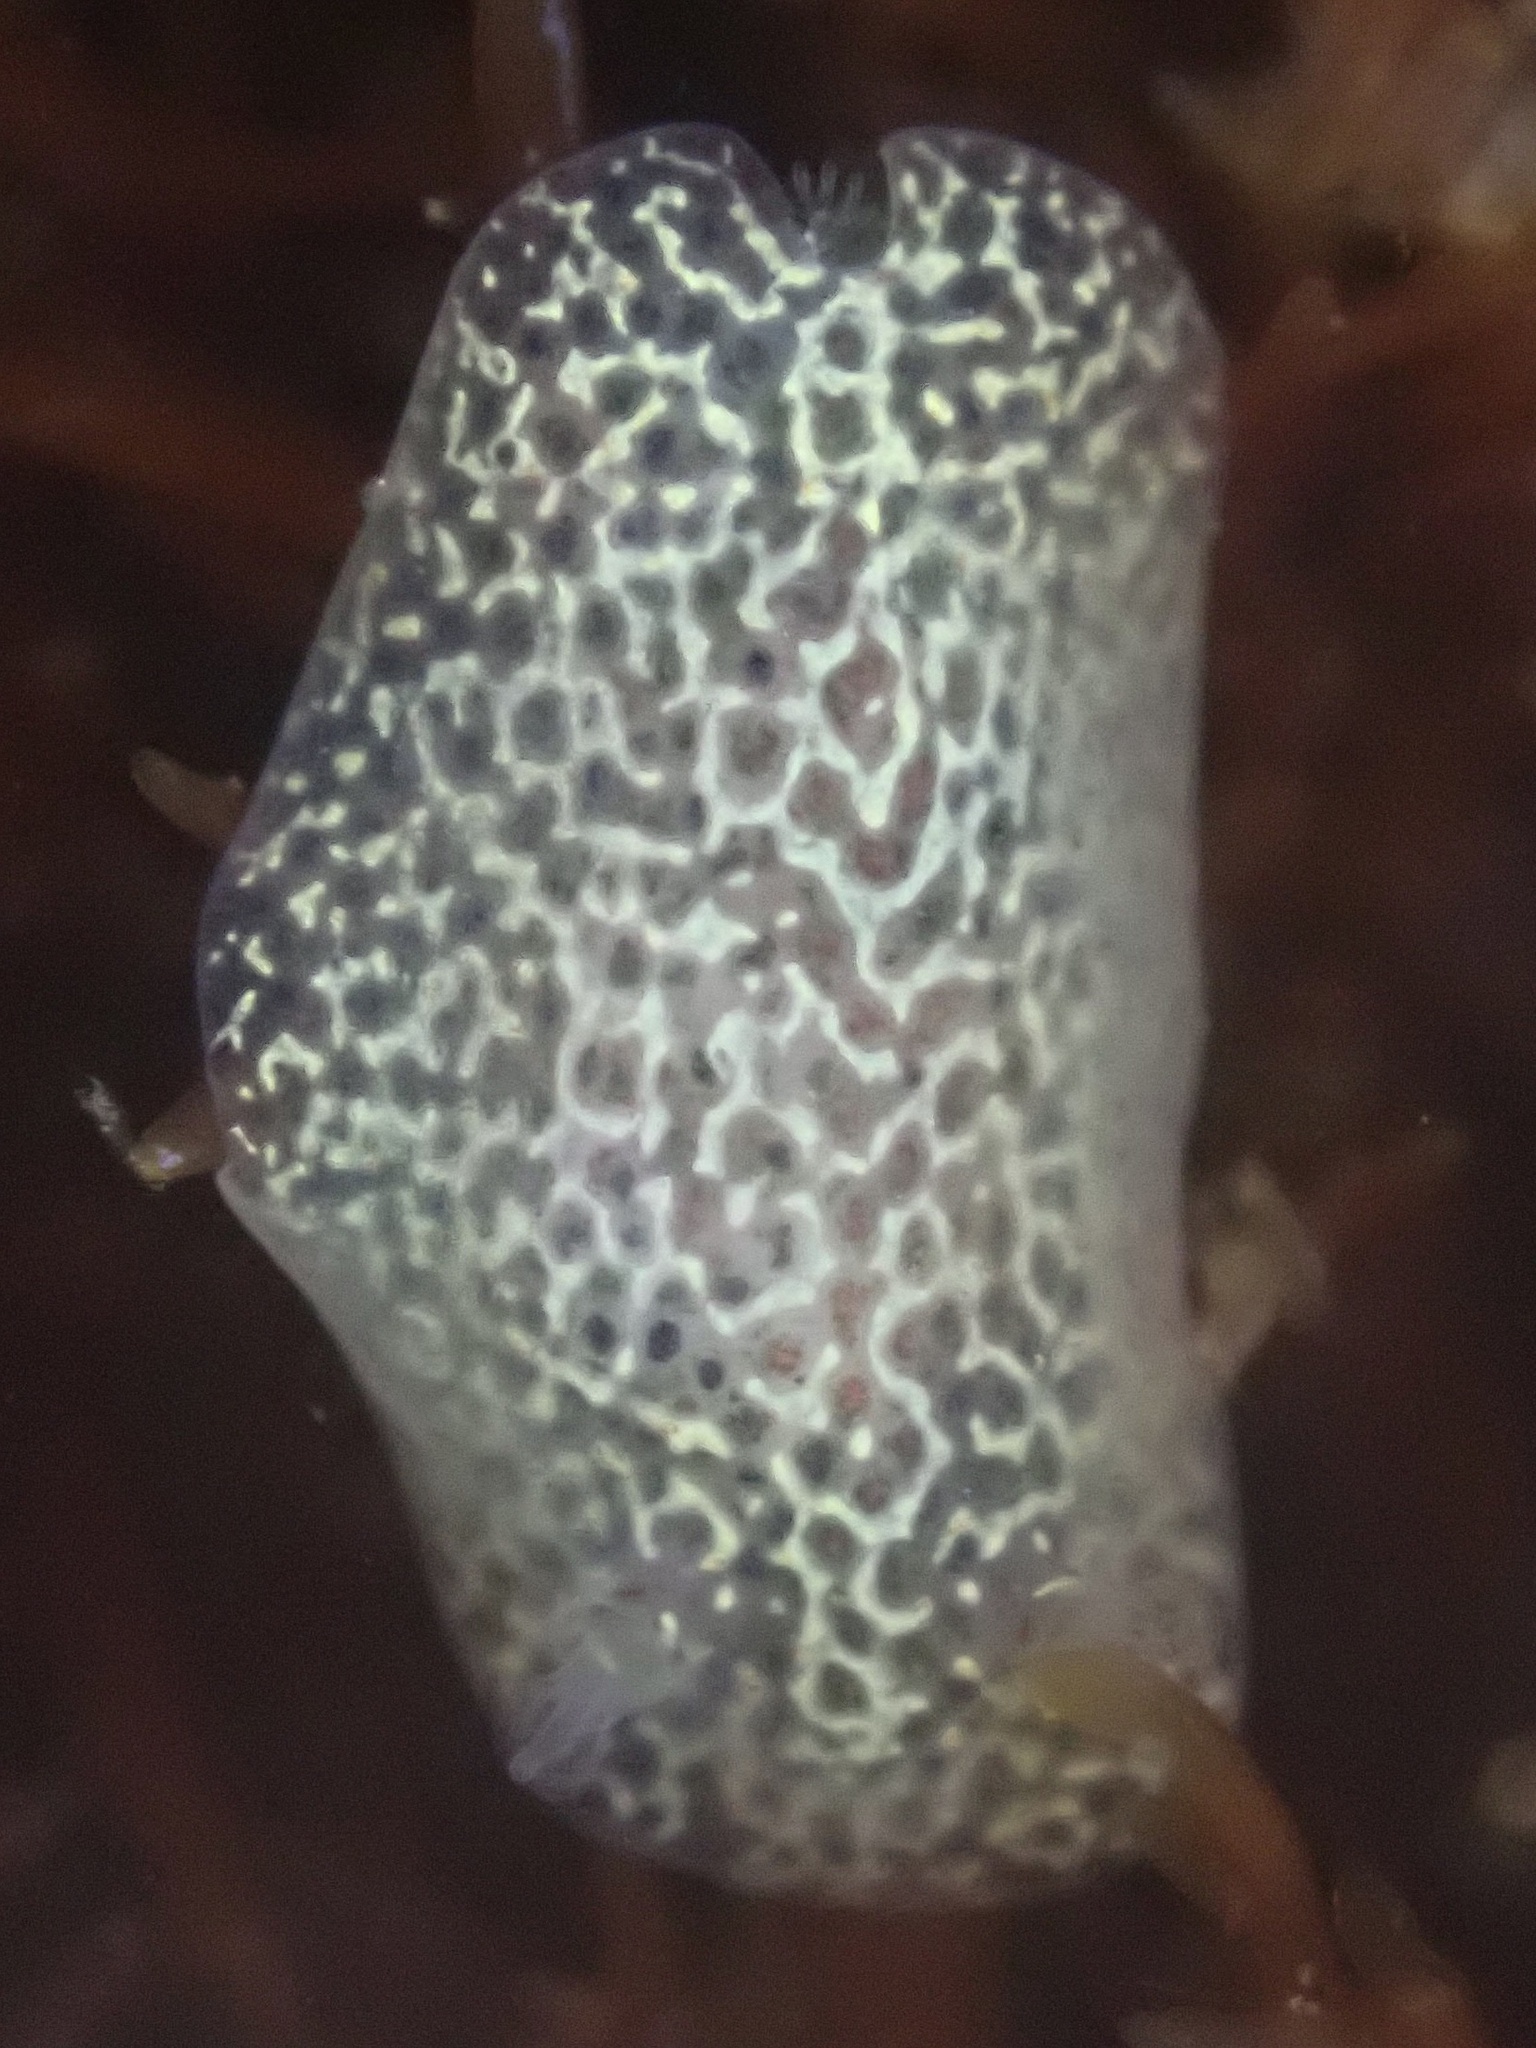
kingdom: Animalia
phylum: Mollusca
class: Gastropoda
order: Nudibranchia
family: Corambidae
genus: Corambe
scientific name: Corambe pacifica
